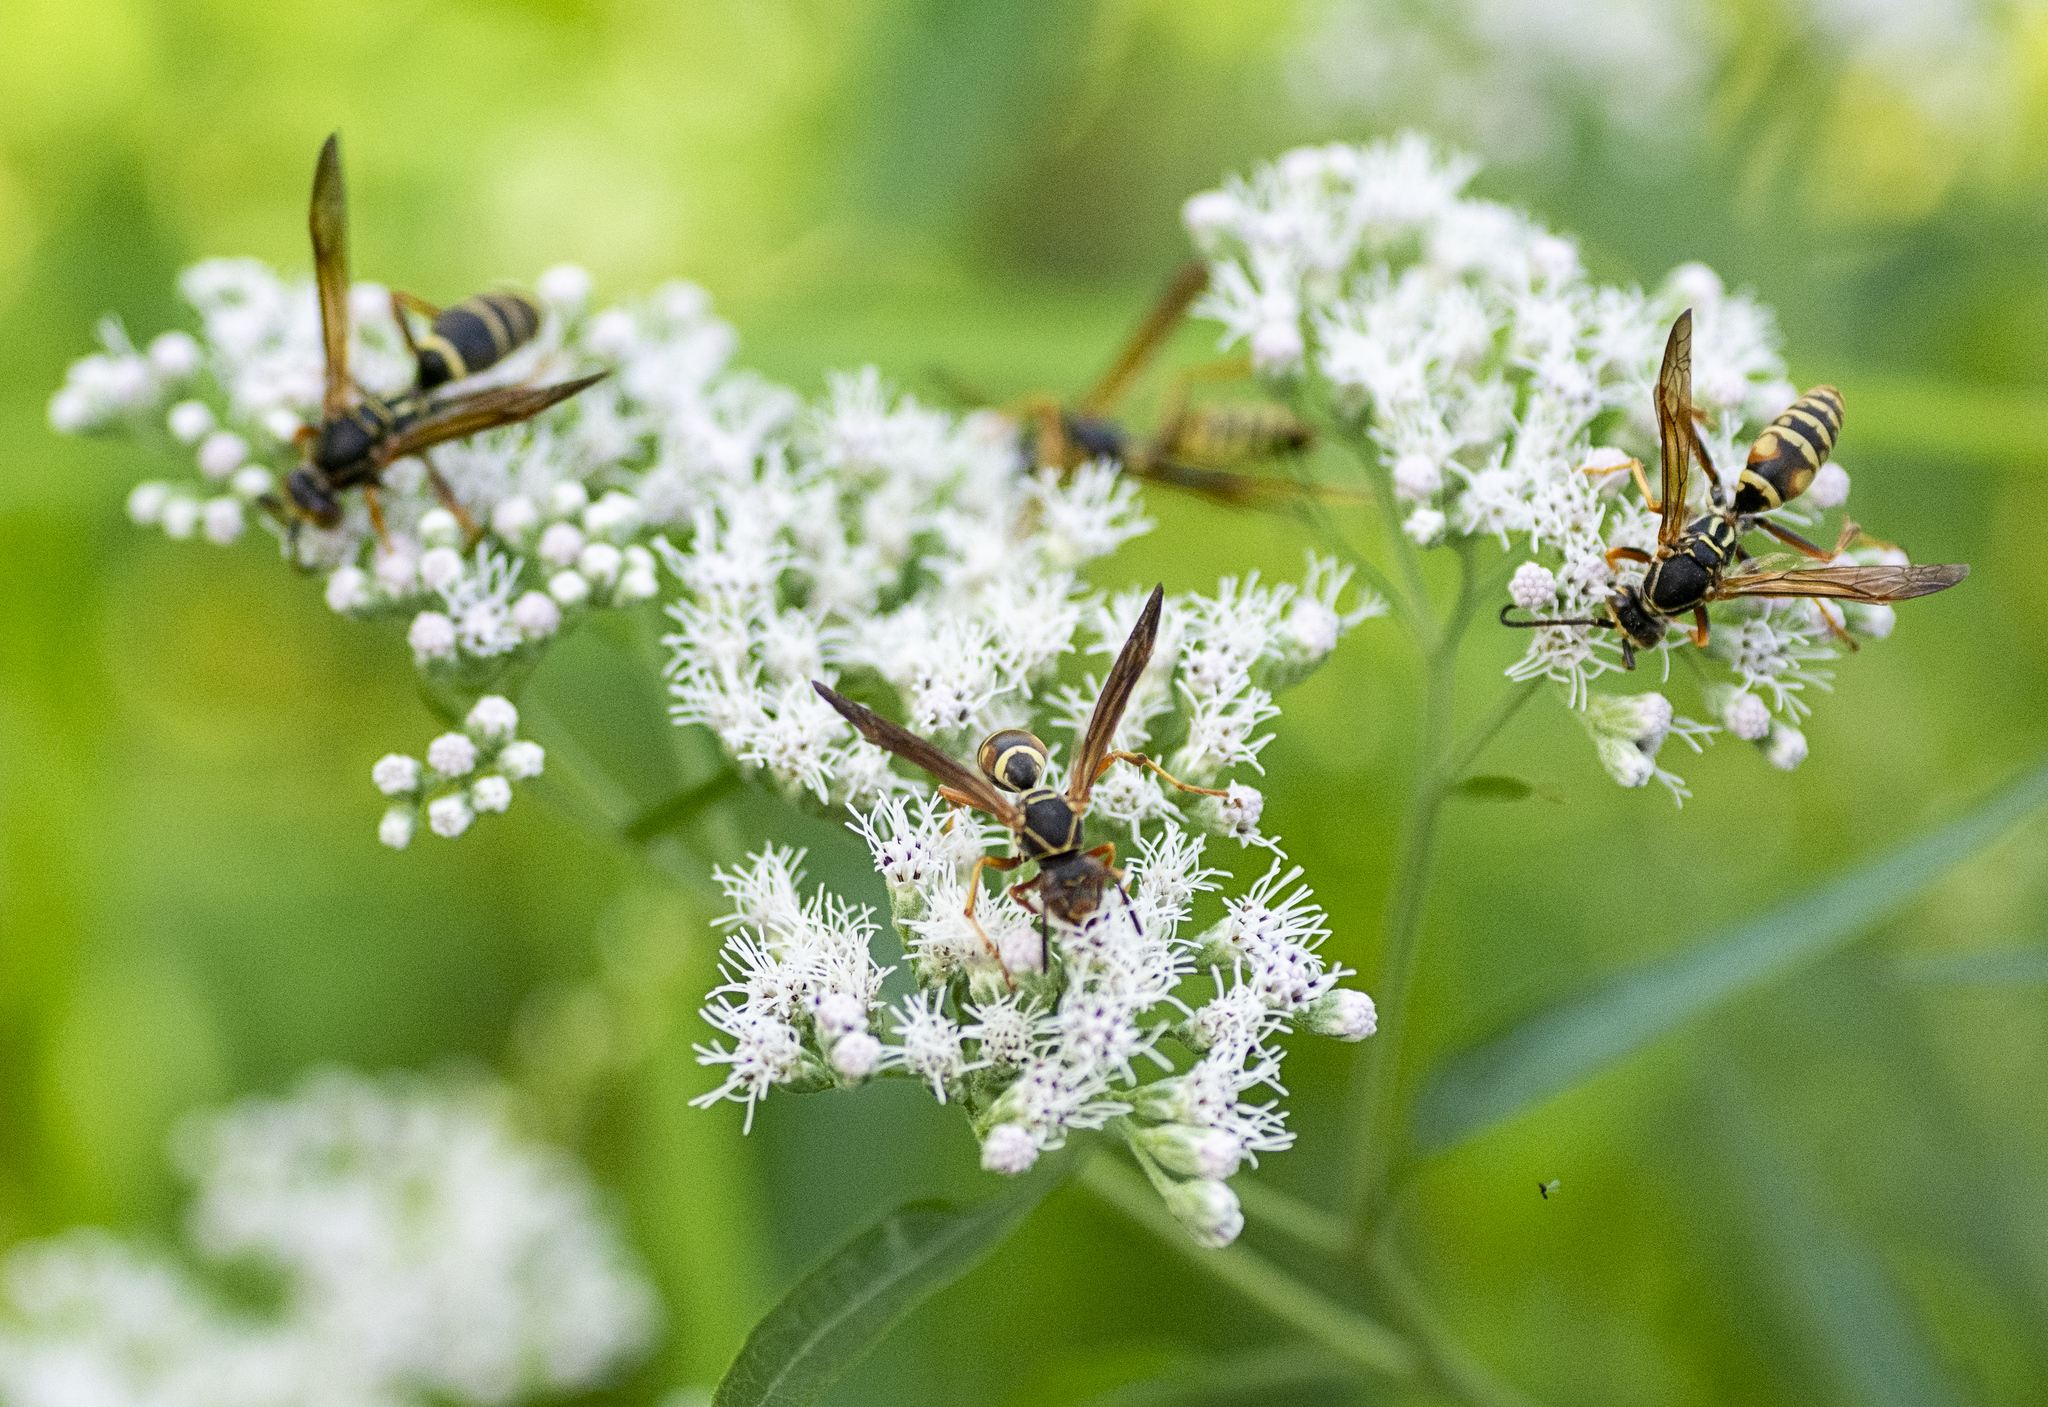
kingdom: Animalia
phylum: Arthropoda
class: Insecta
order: Hymenoptera
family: Eumenidae
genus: Polistes
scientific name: Polistes fuscatus
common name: Dark paper wasp
